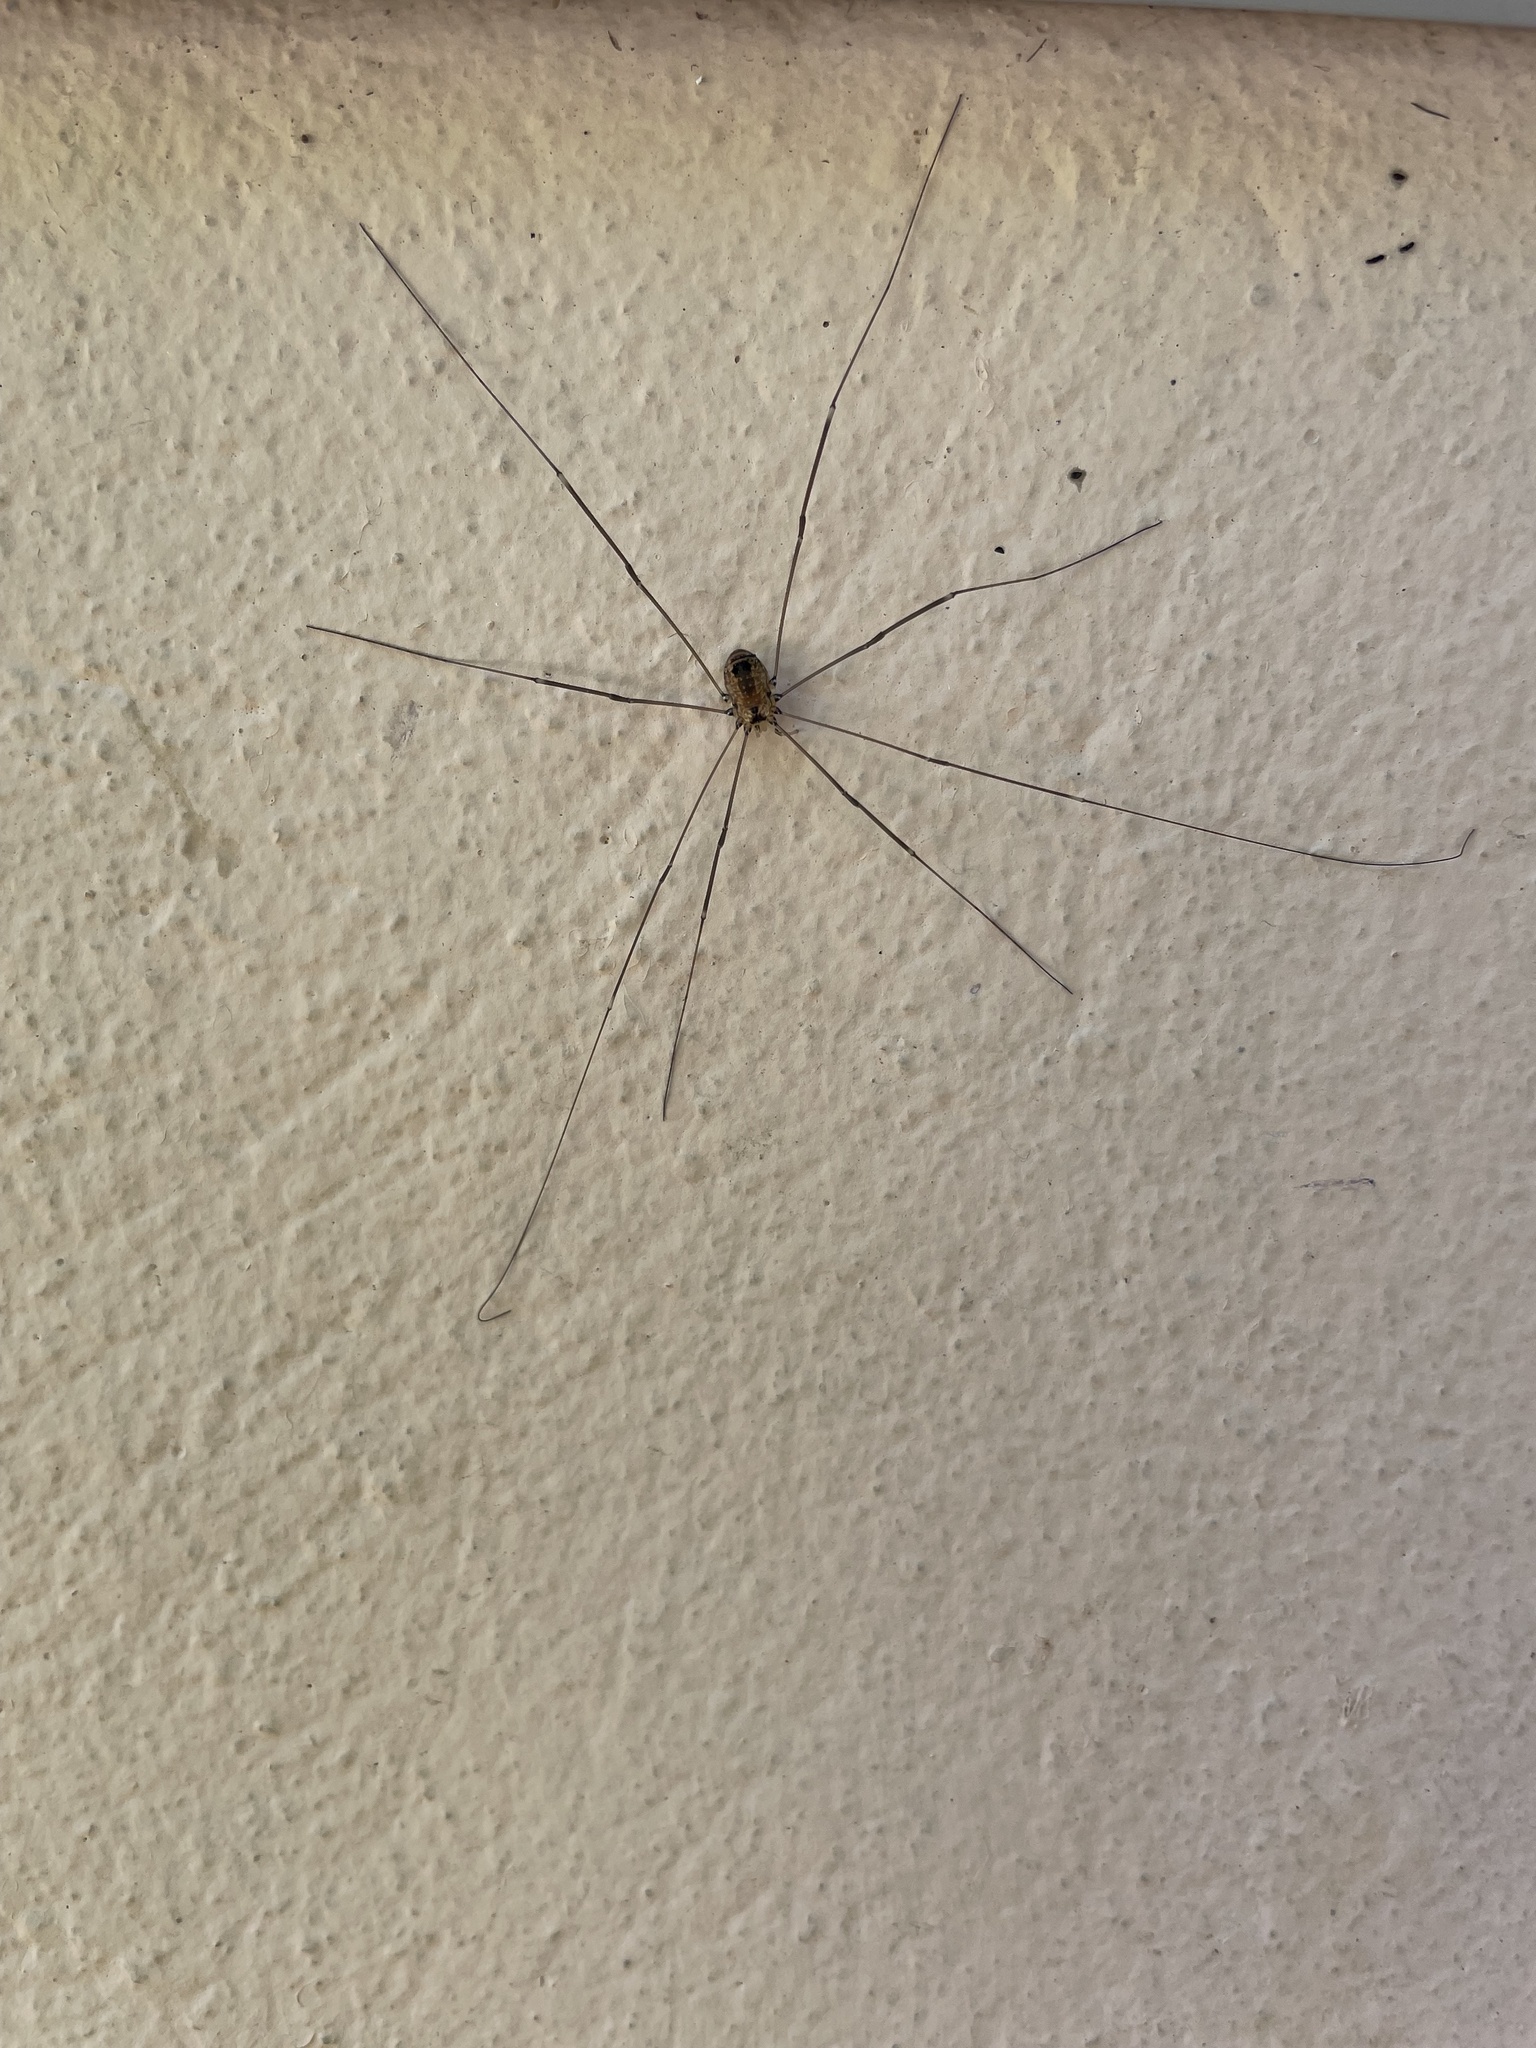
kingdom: Animalia
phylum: Arthropoda
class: Arachnida
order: Opiliones
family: Sclerosomatidae
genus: Leiobunum
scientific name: Leiobunum rotundum
